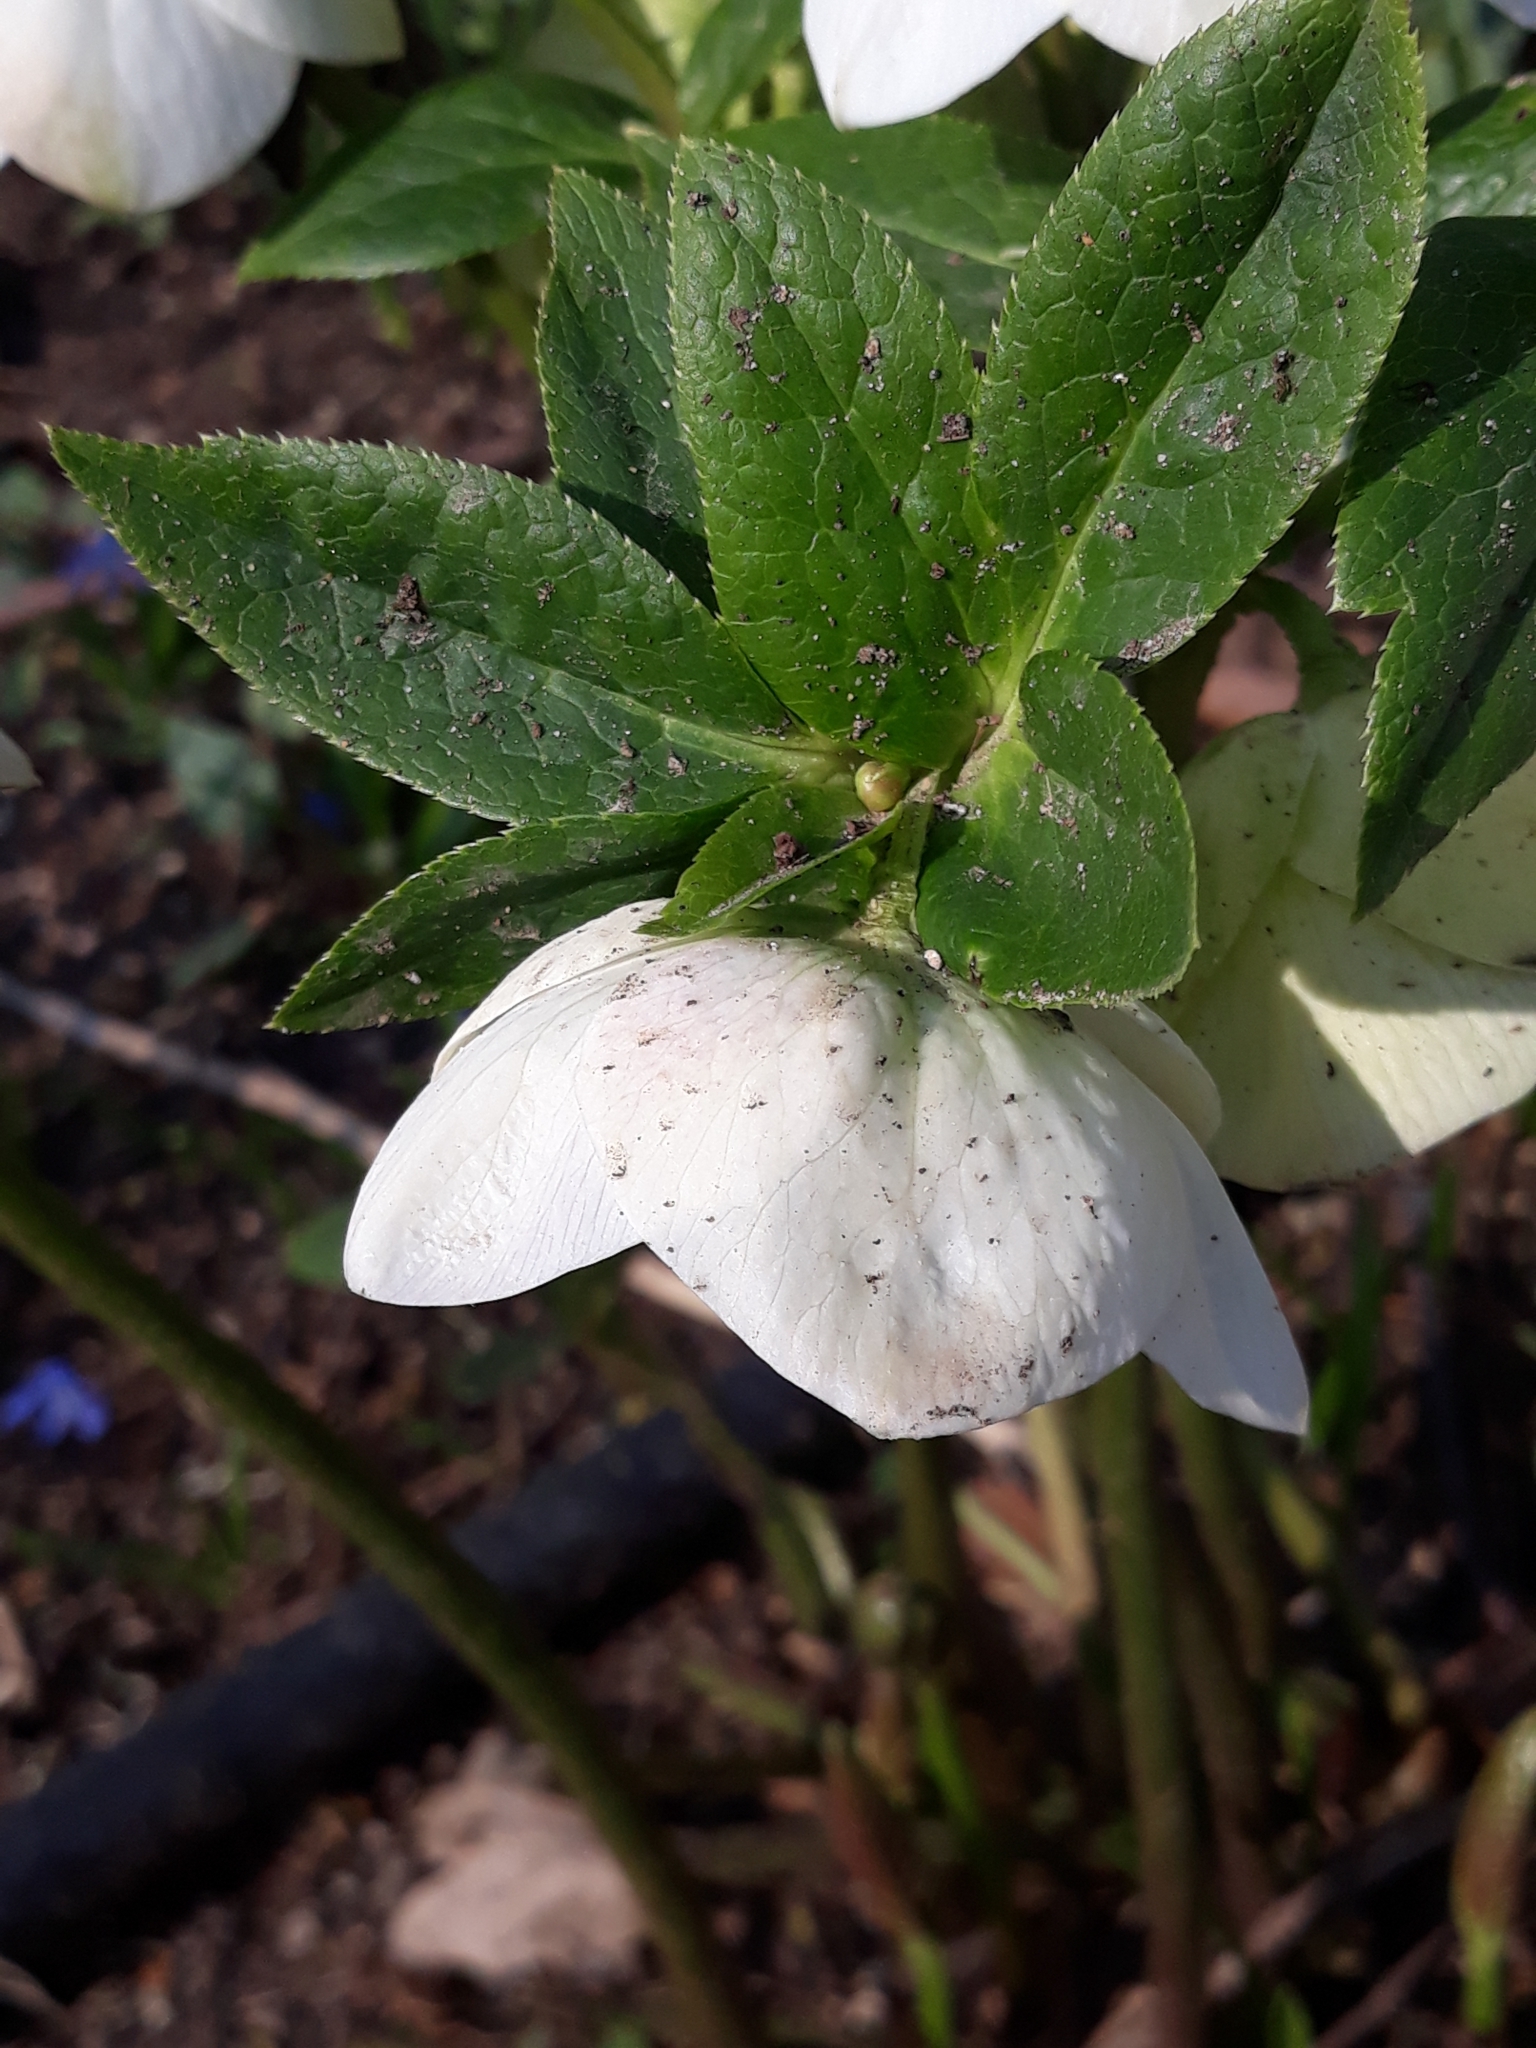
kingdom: Plantae
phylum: Tracheophyta
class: Magnoliopsida
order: Ranunculales
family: Ranunculaceae
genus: Helleborus
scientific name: Helleborus orientalis
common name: Lenten-rose
